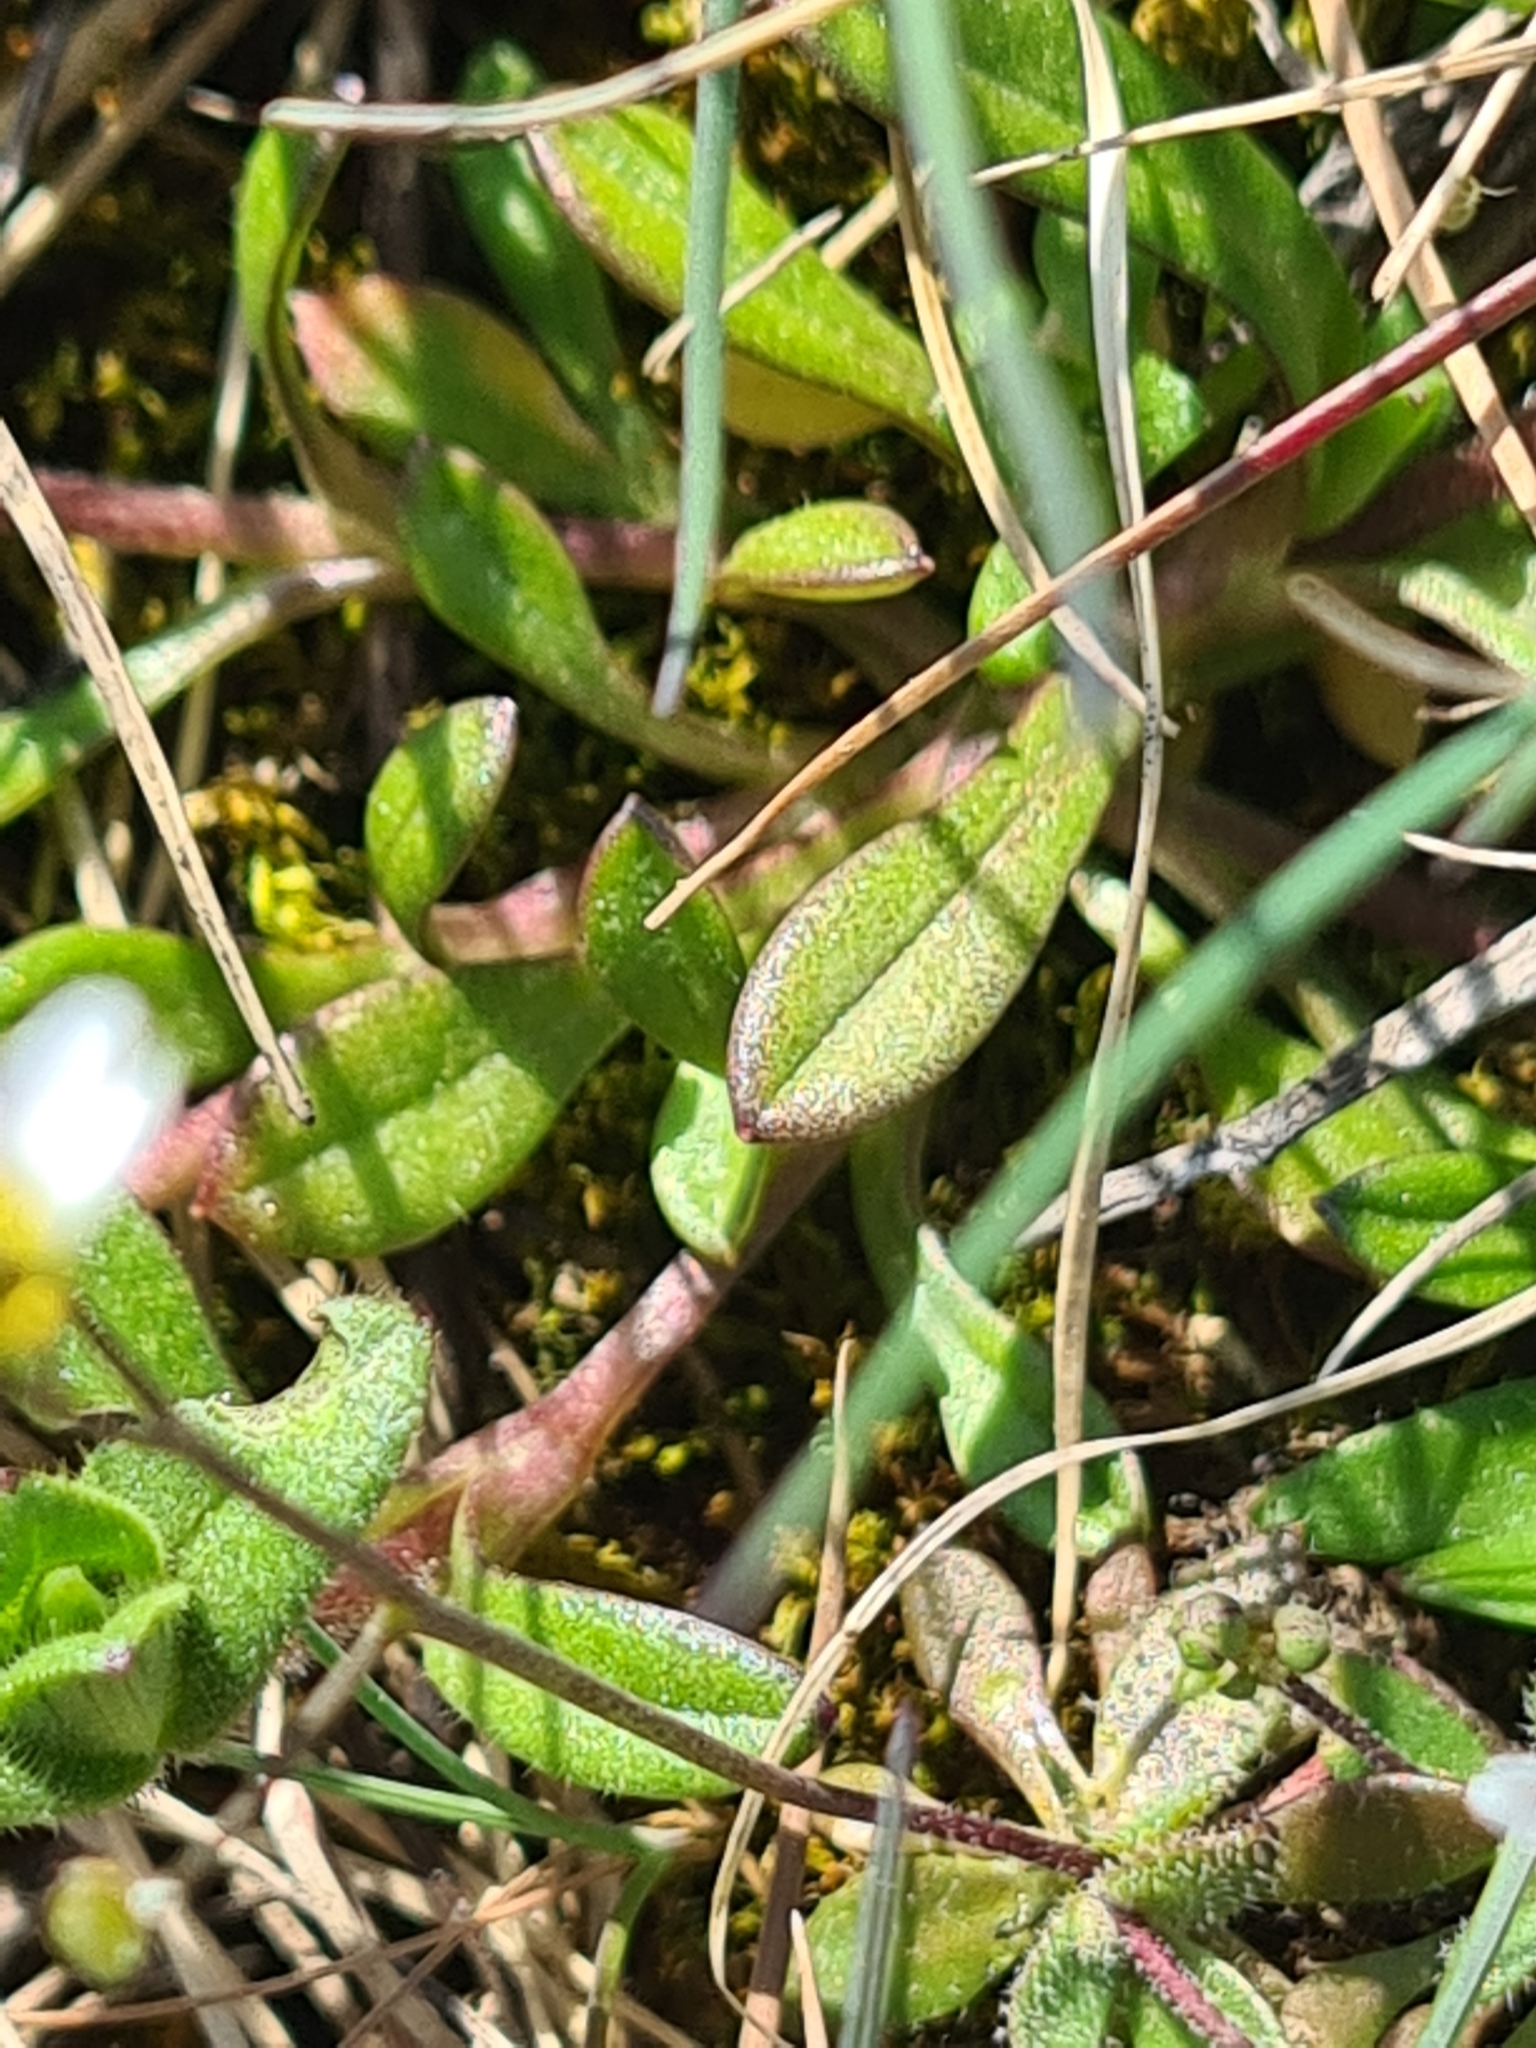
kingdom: Plantae
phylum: Tracheophyta
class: Magnoliopsida
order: Brassicales
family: Brassicaceae
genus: Draba
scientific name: Draba verna
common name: Spring draba
